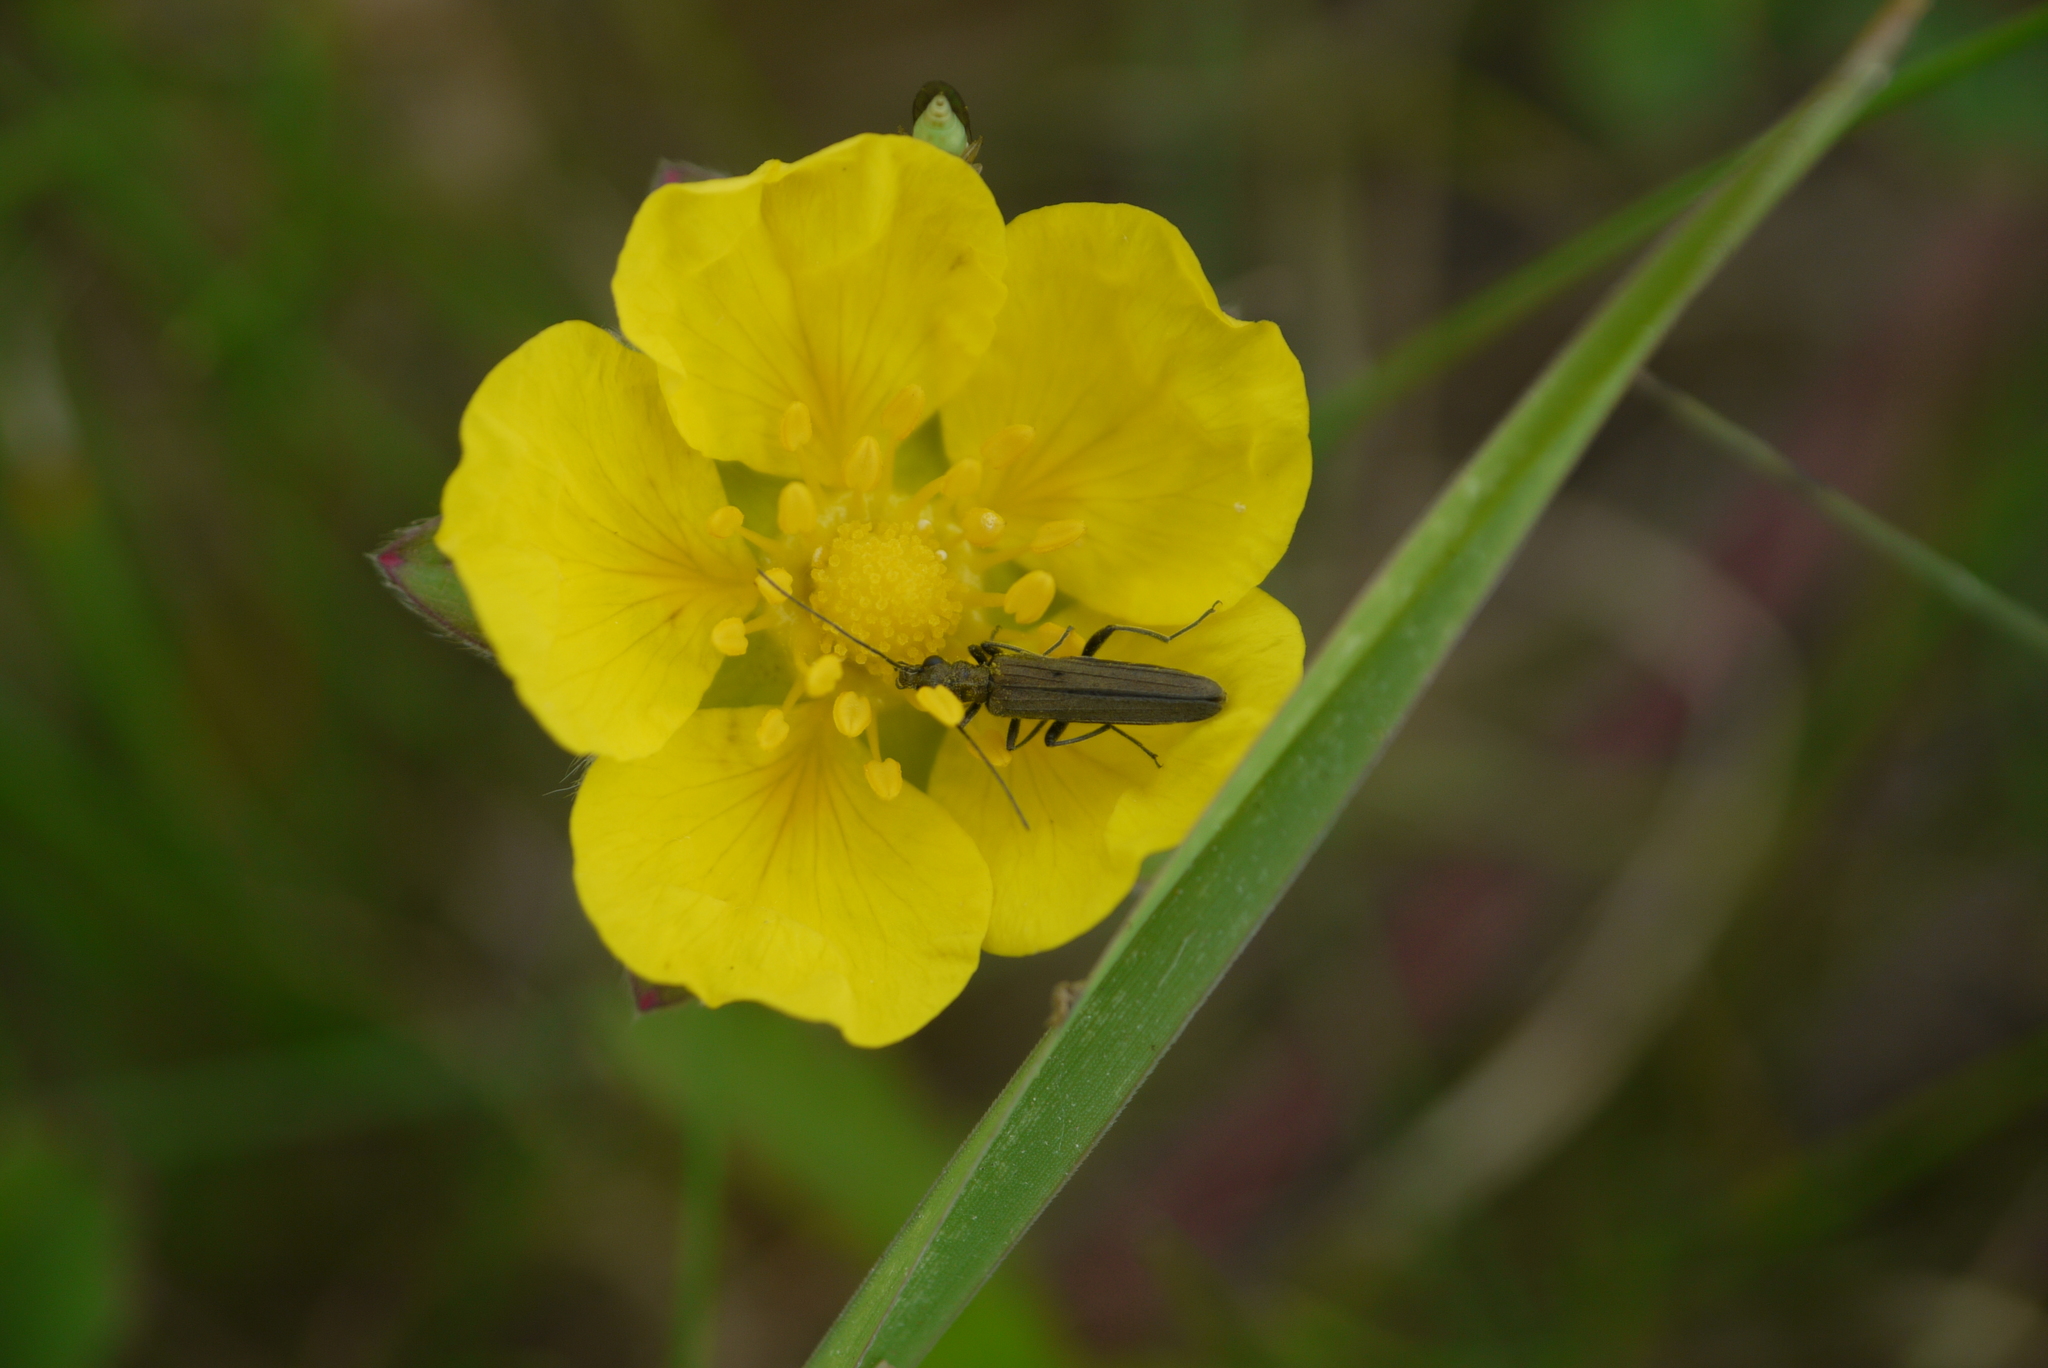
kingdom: Animalia
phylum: Arthropoda
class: Insecta
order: Coleoptera
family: Oedemeridae
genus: Oedemera
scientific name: Oedemera lurida
